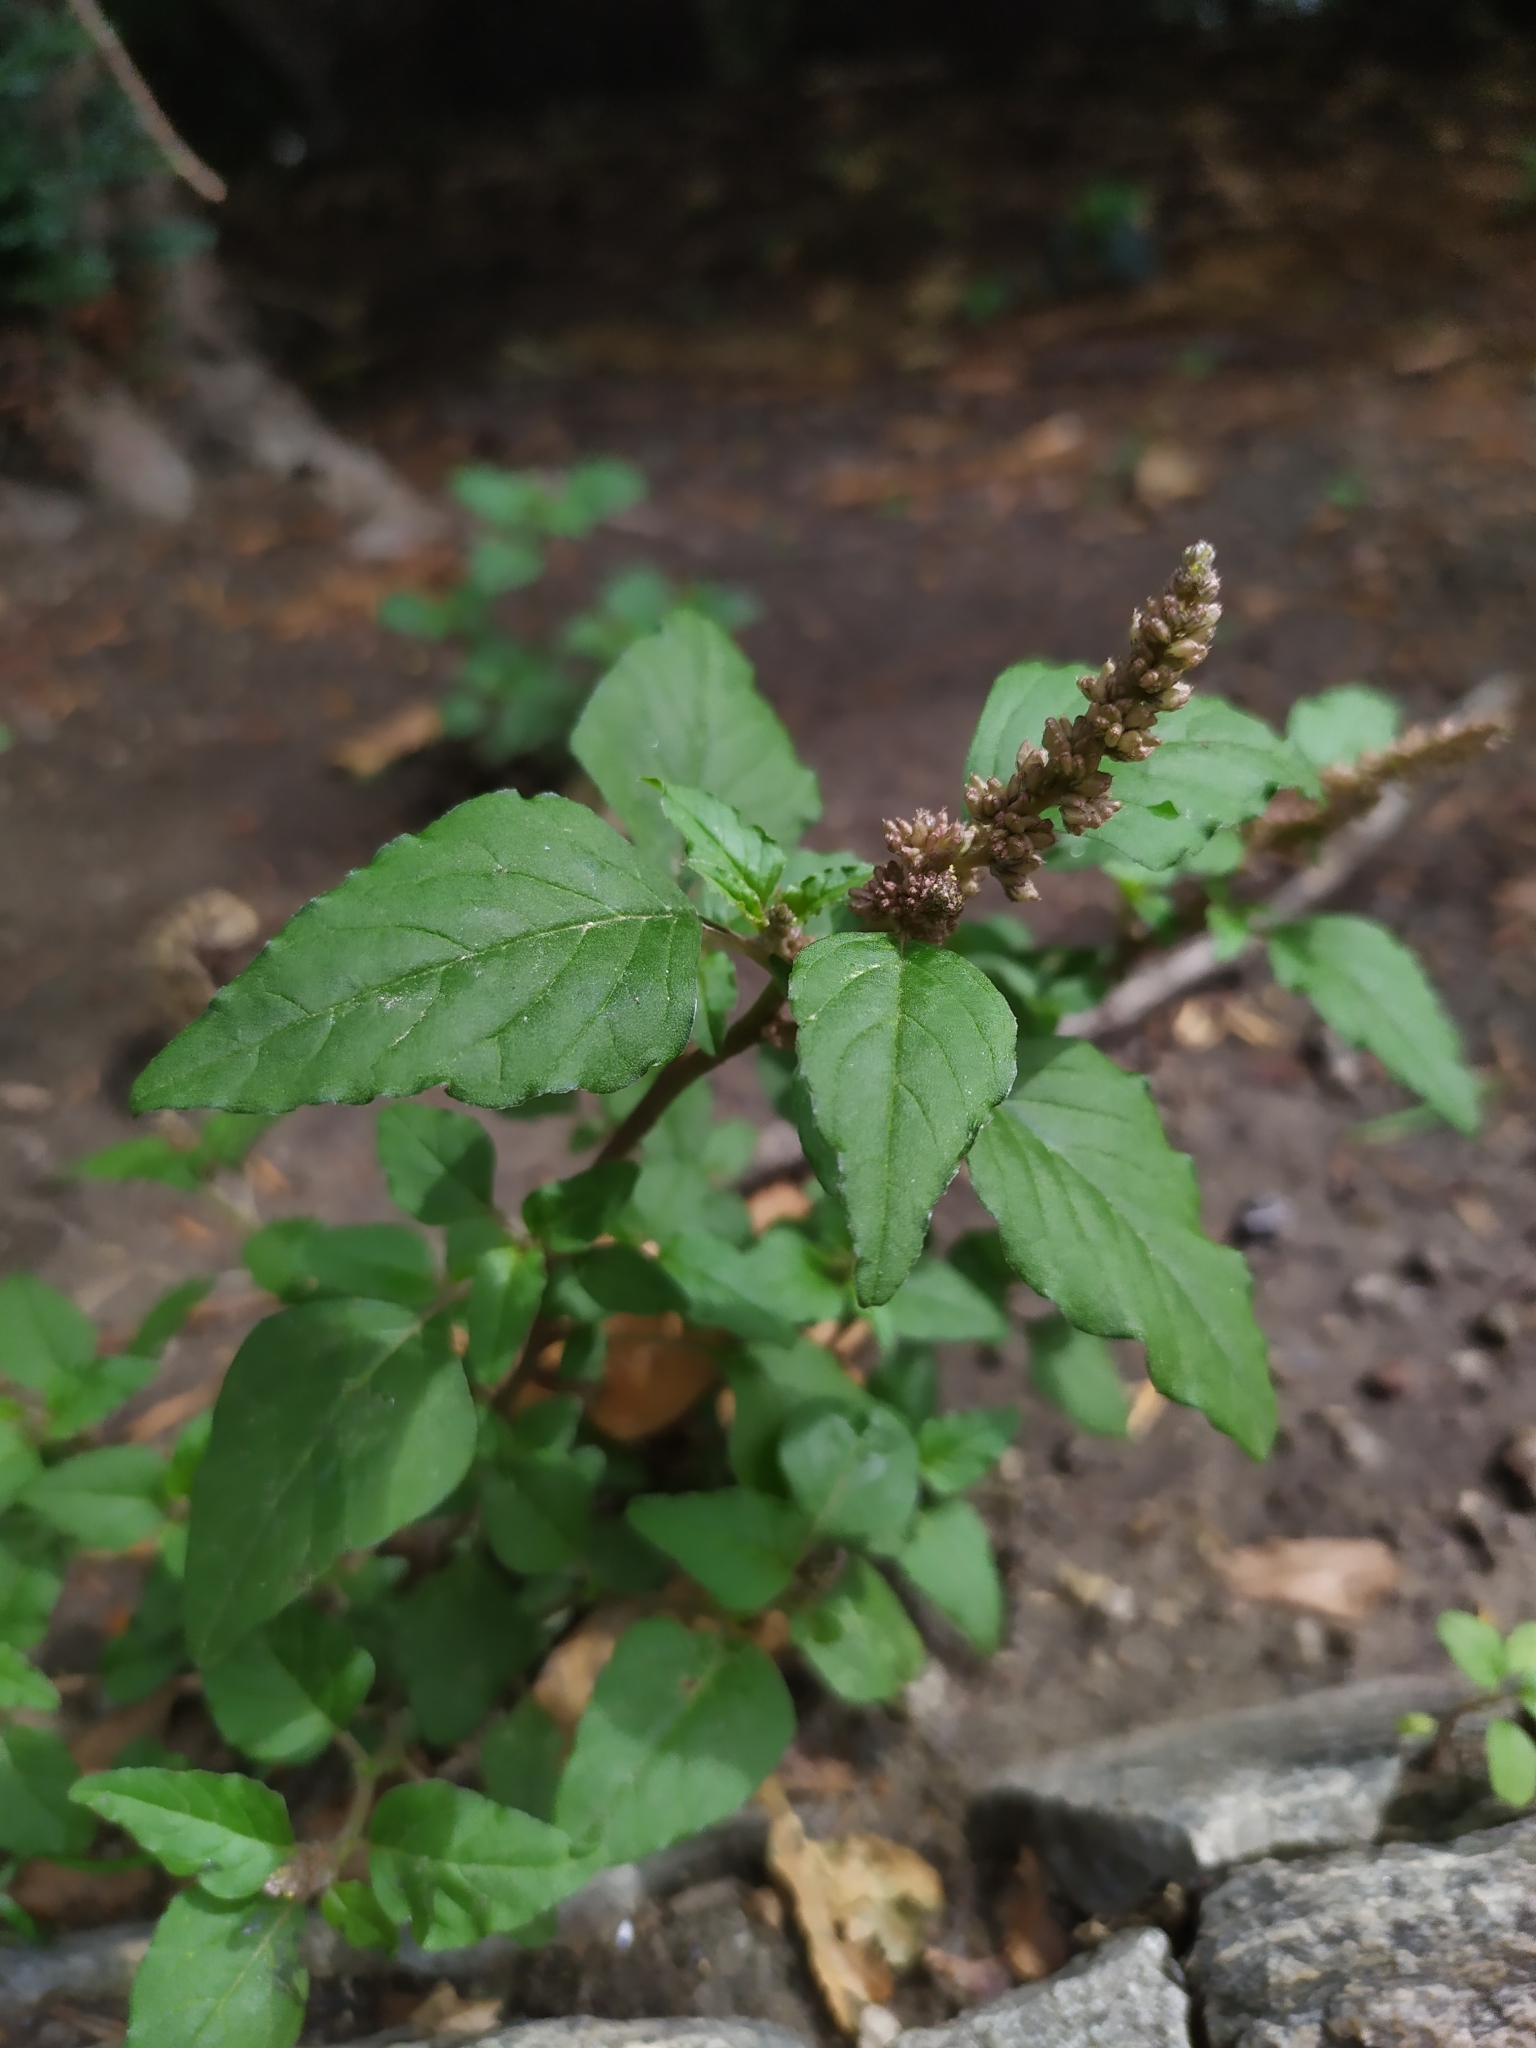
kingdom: Plantae
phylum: Tracheophyta
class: Magnoliopsida
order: Caryophyllales
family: Amaranthaceae
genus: Amaranthus
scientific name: Amaranthus deflexus
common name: Perennial pigweed
